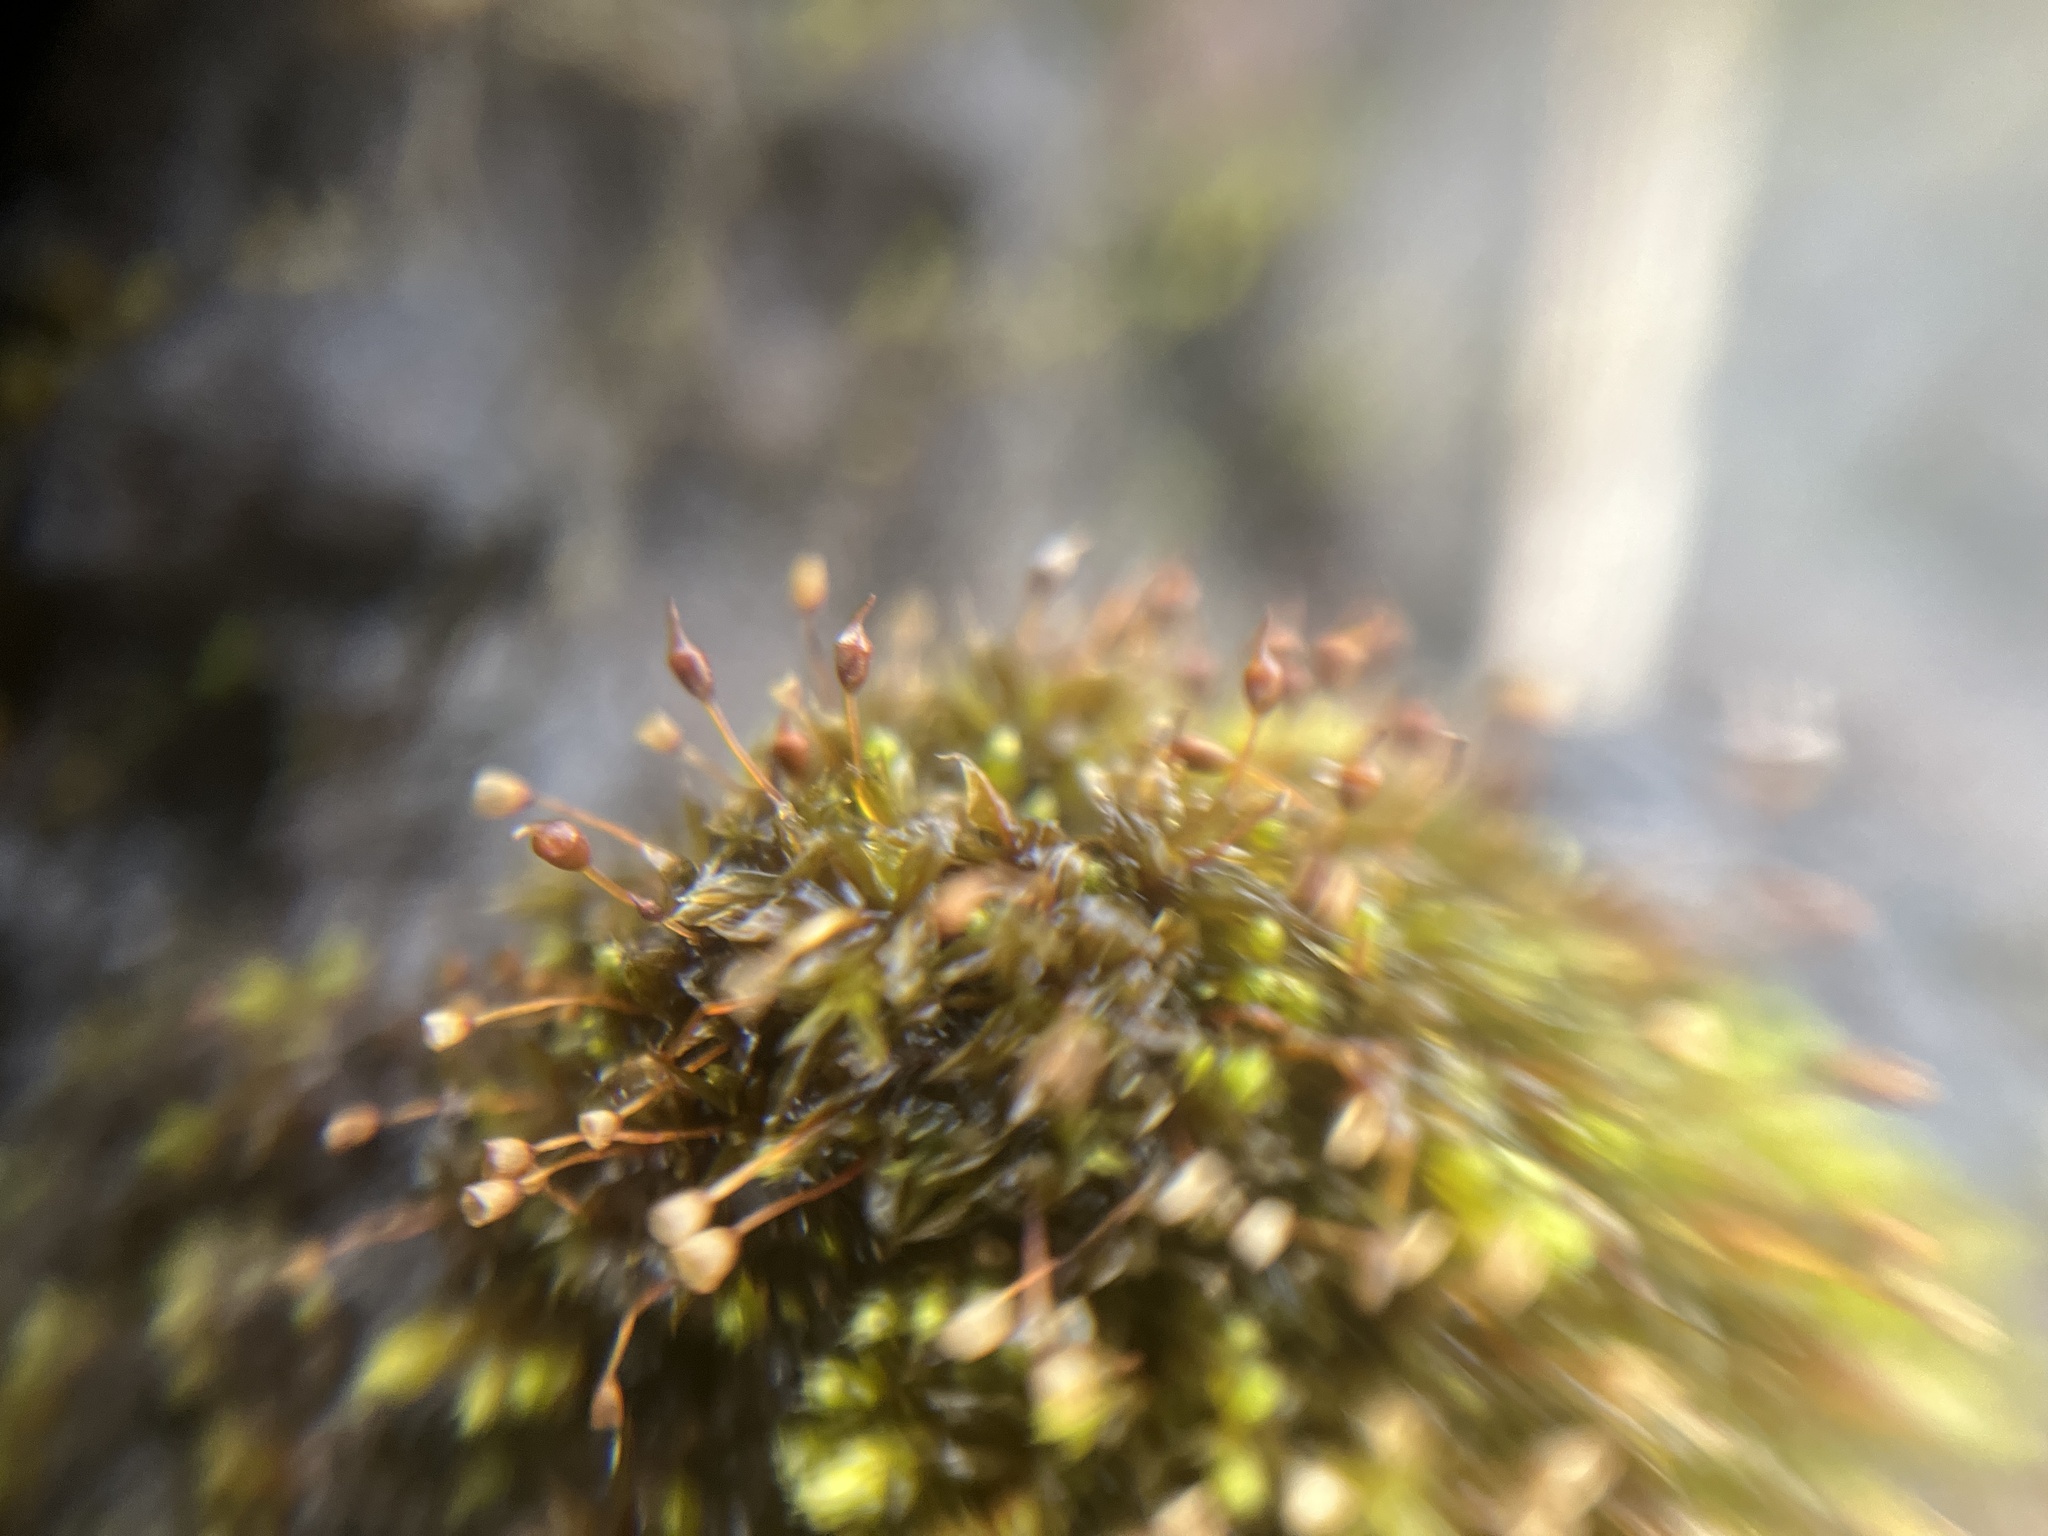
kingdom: Plantae
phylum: Bryophyta
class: Bryopsida
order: Pottiales
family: Pottiaceae
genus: Tortula
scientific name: Tortula truncata
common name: Truncated screw moss
